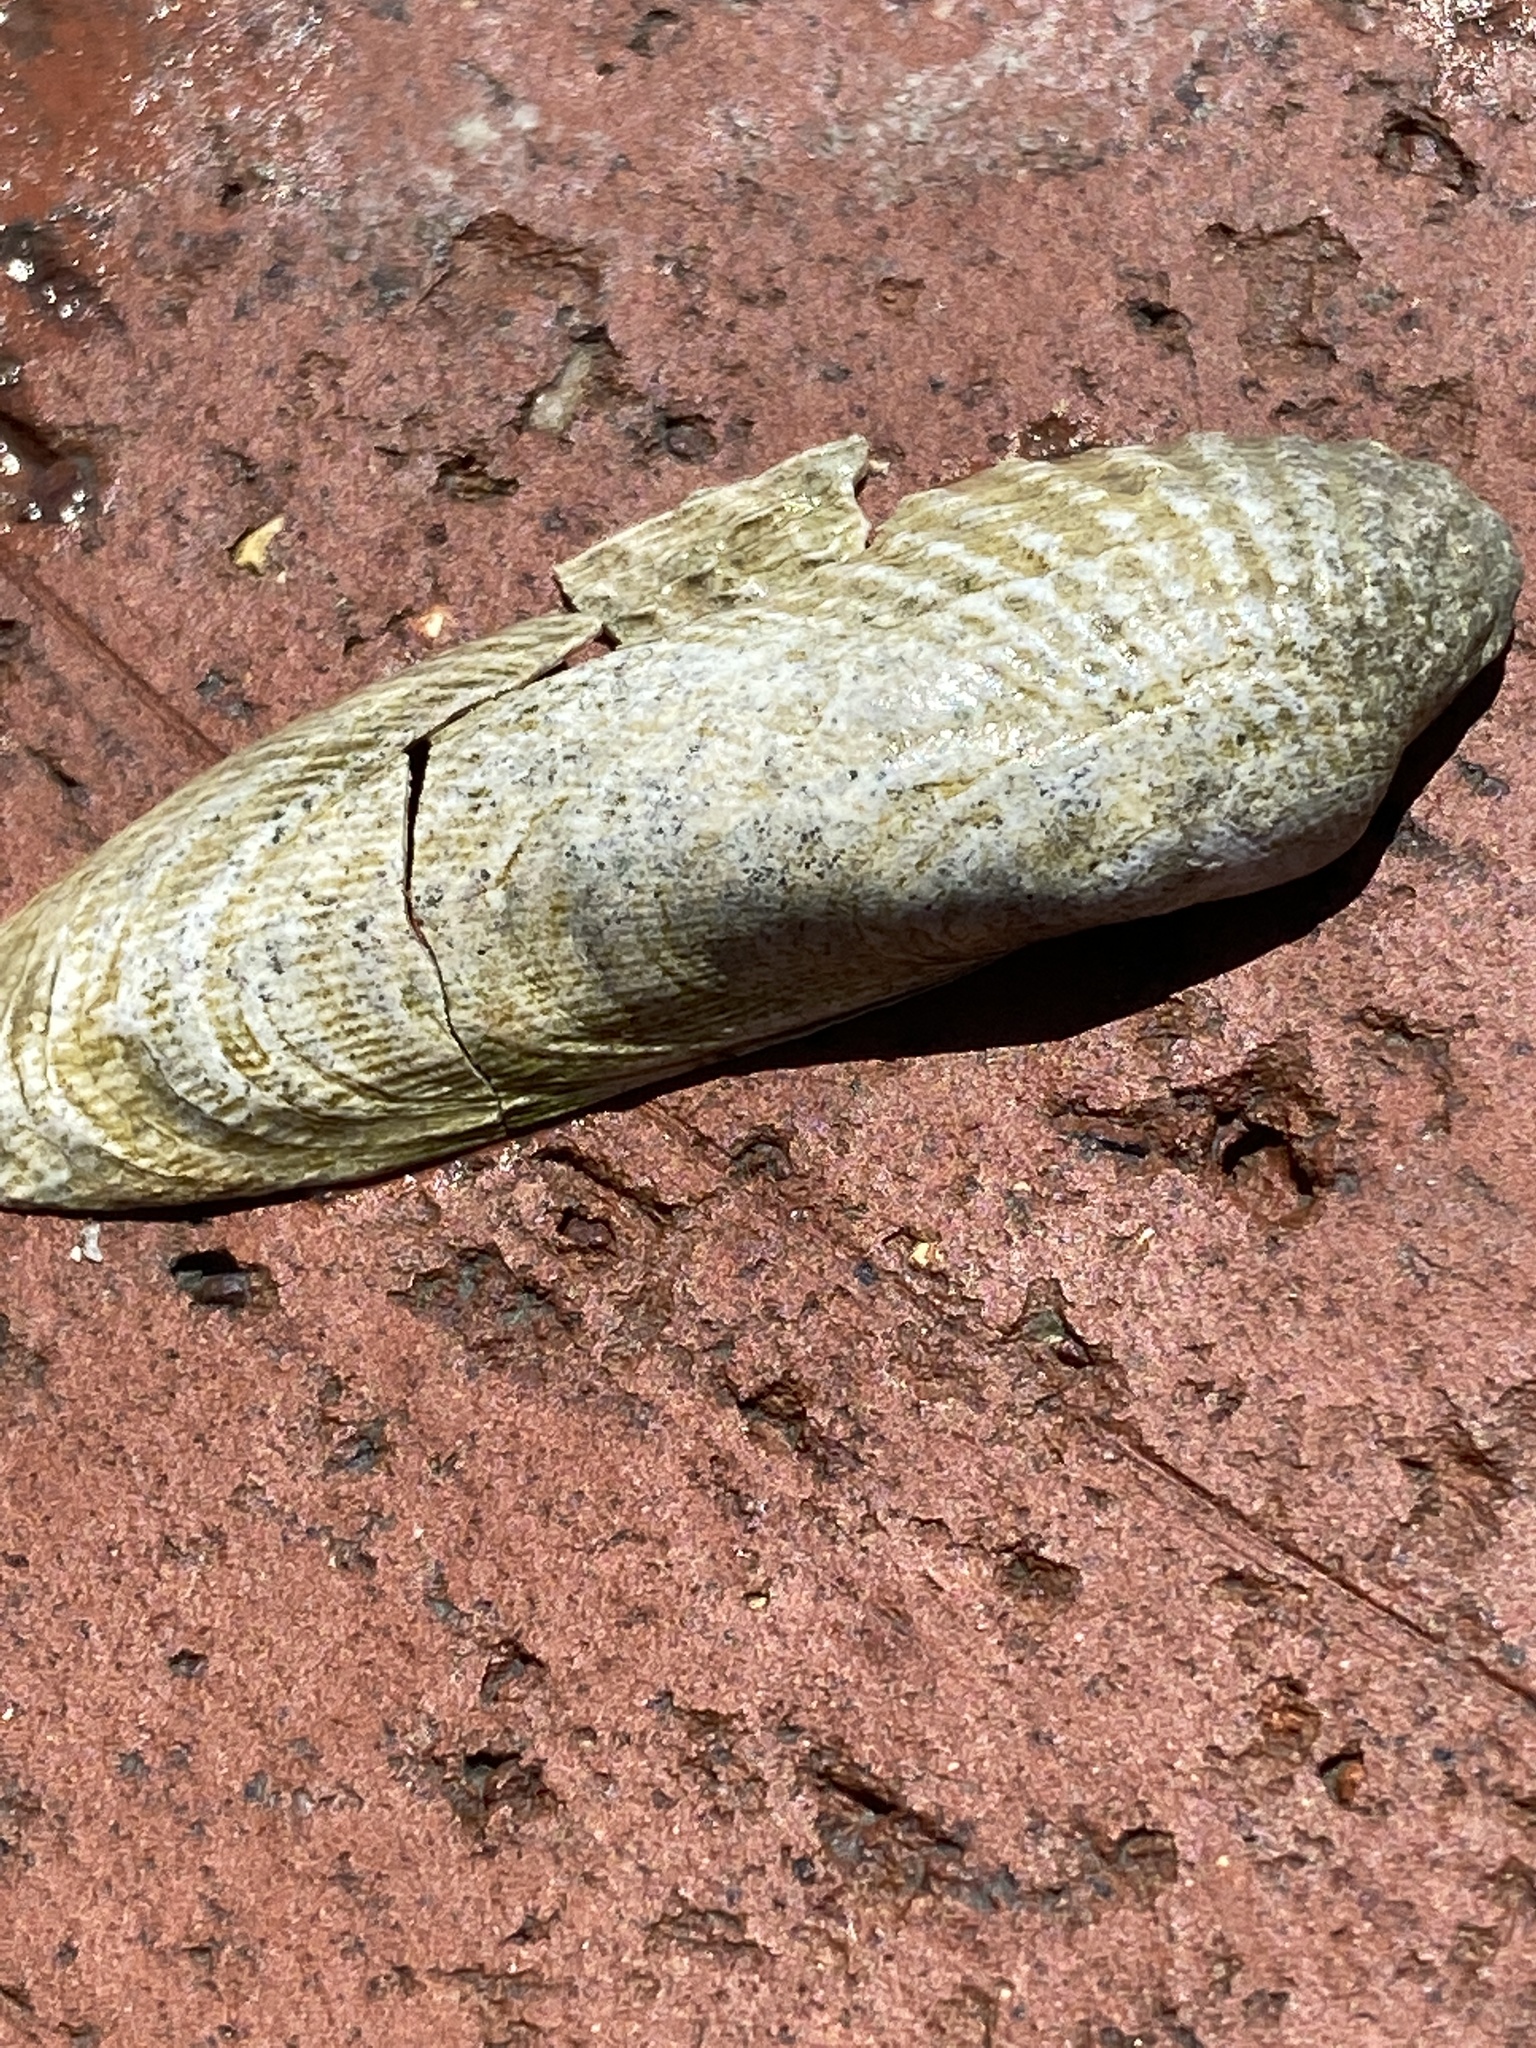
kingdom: Animalia
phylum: Mollusca
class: Bivalvia
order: Venerida
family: Veneridae
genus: Petricolaria
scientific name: Petricolaria pholadiformis
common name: American piddock
